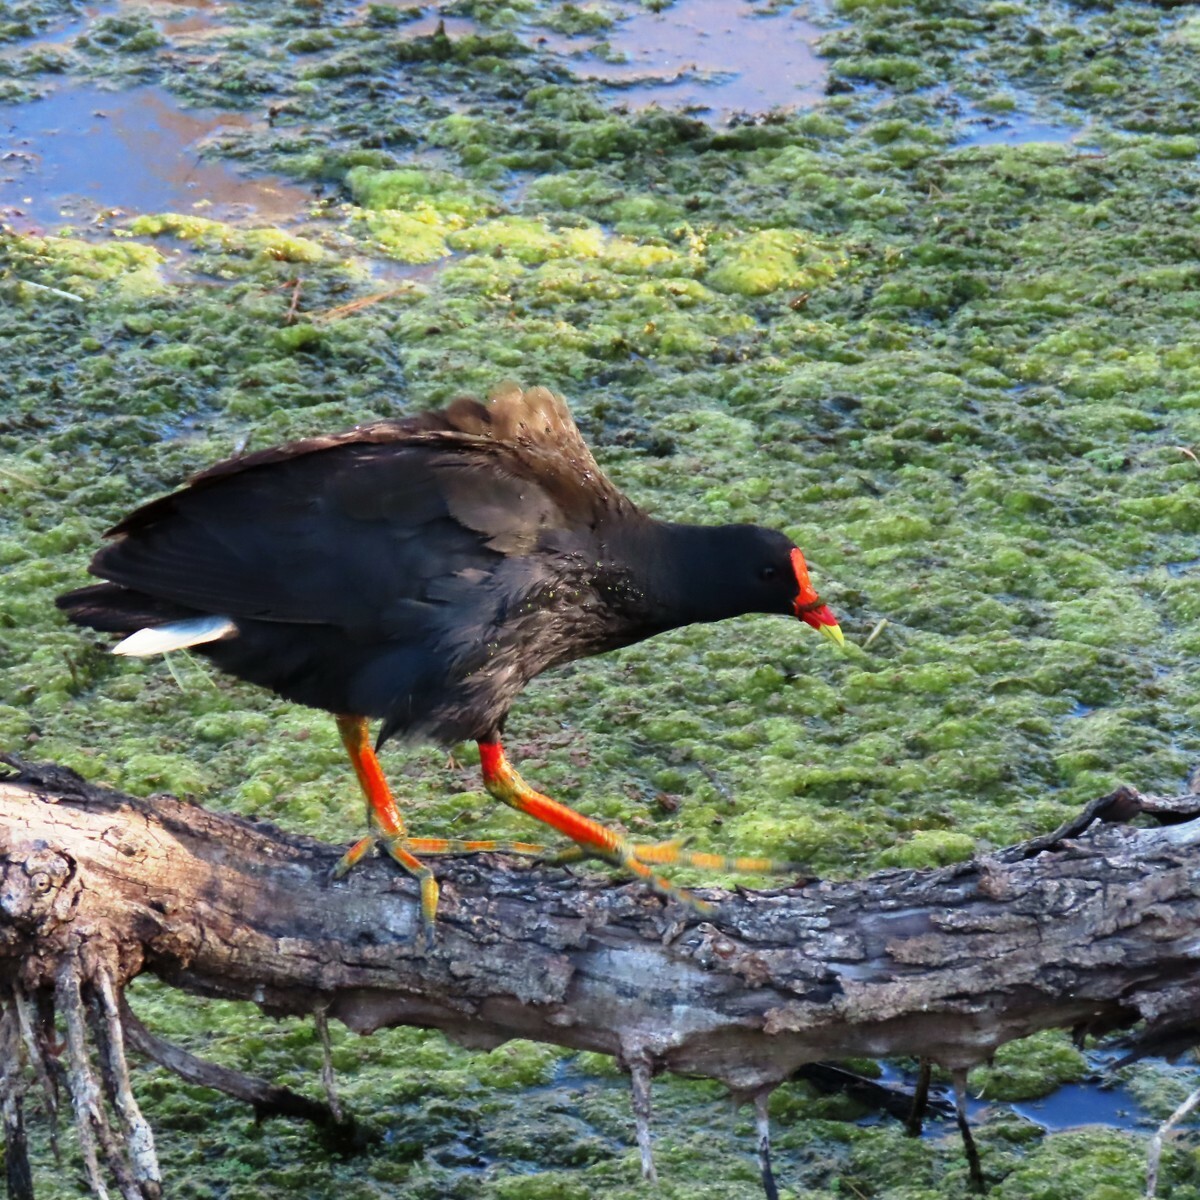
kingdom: Animalia
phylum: Chordata
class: Aves
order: Gruiformes
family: Rallidae
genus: Gallinula
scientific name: Gallinula tenebrosa
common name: Dusky moorhen
